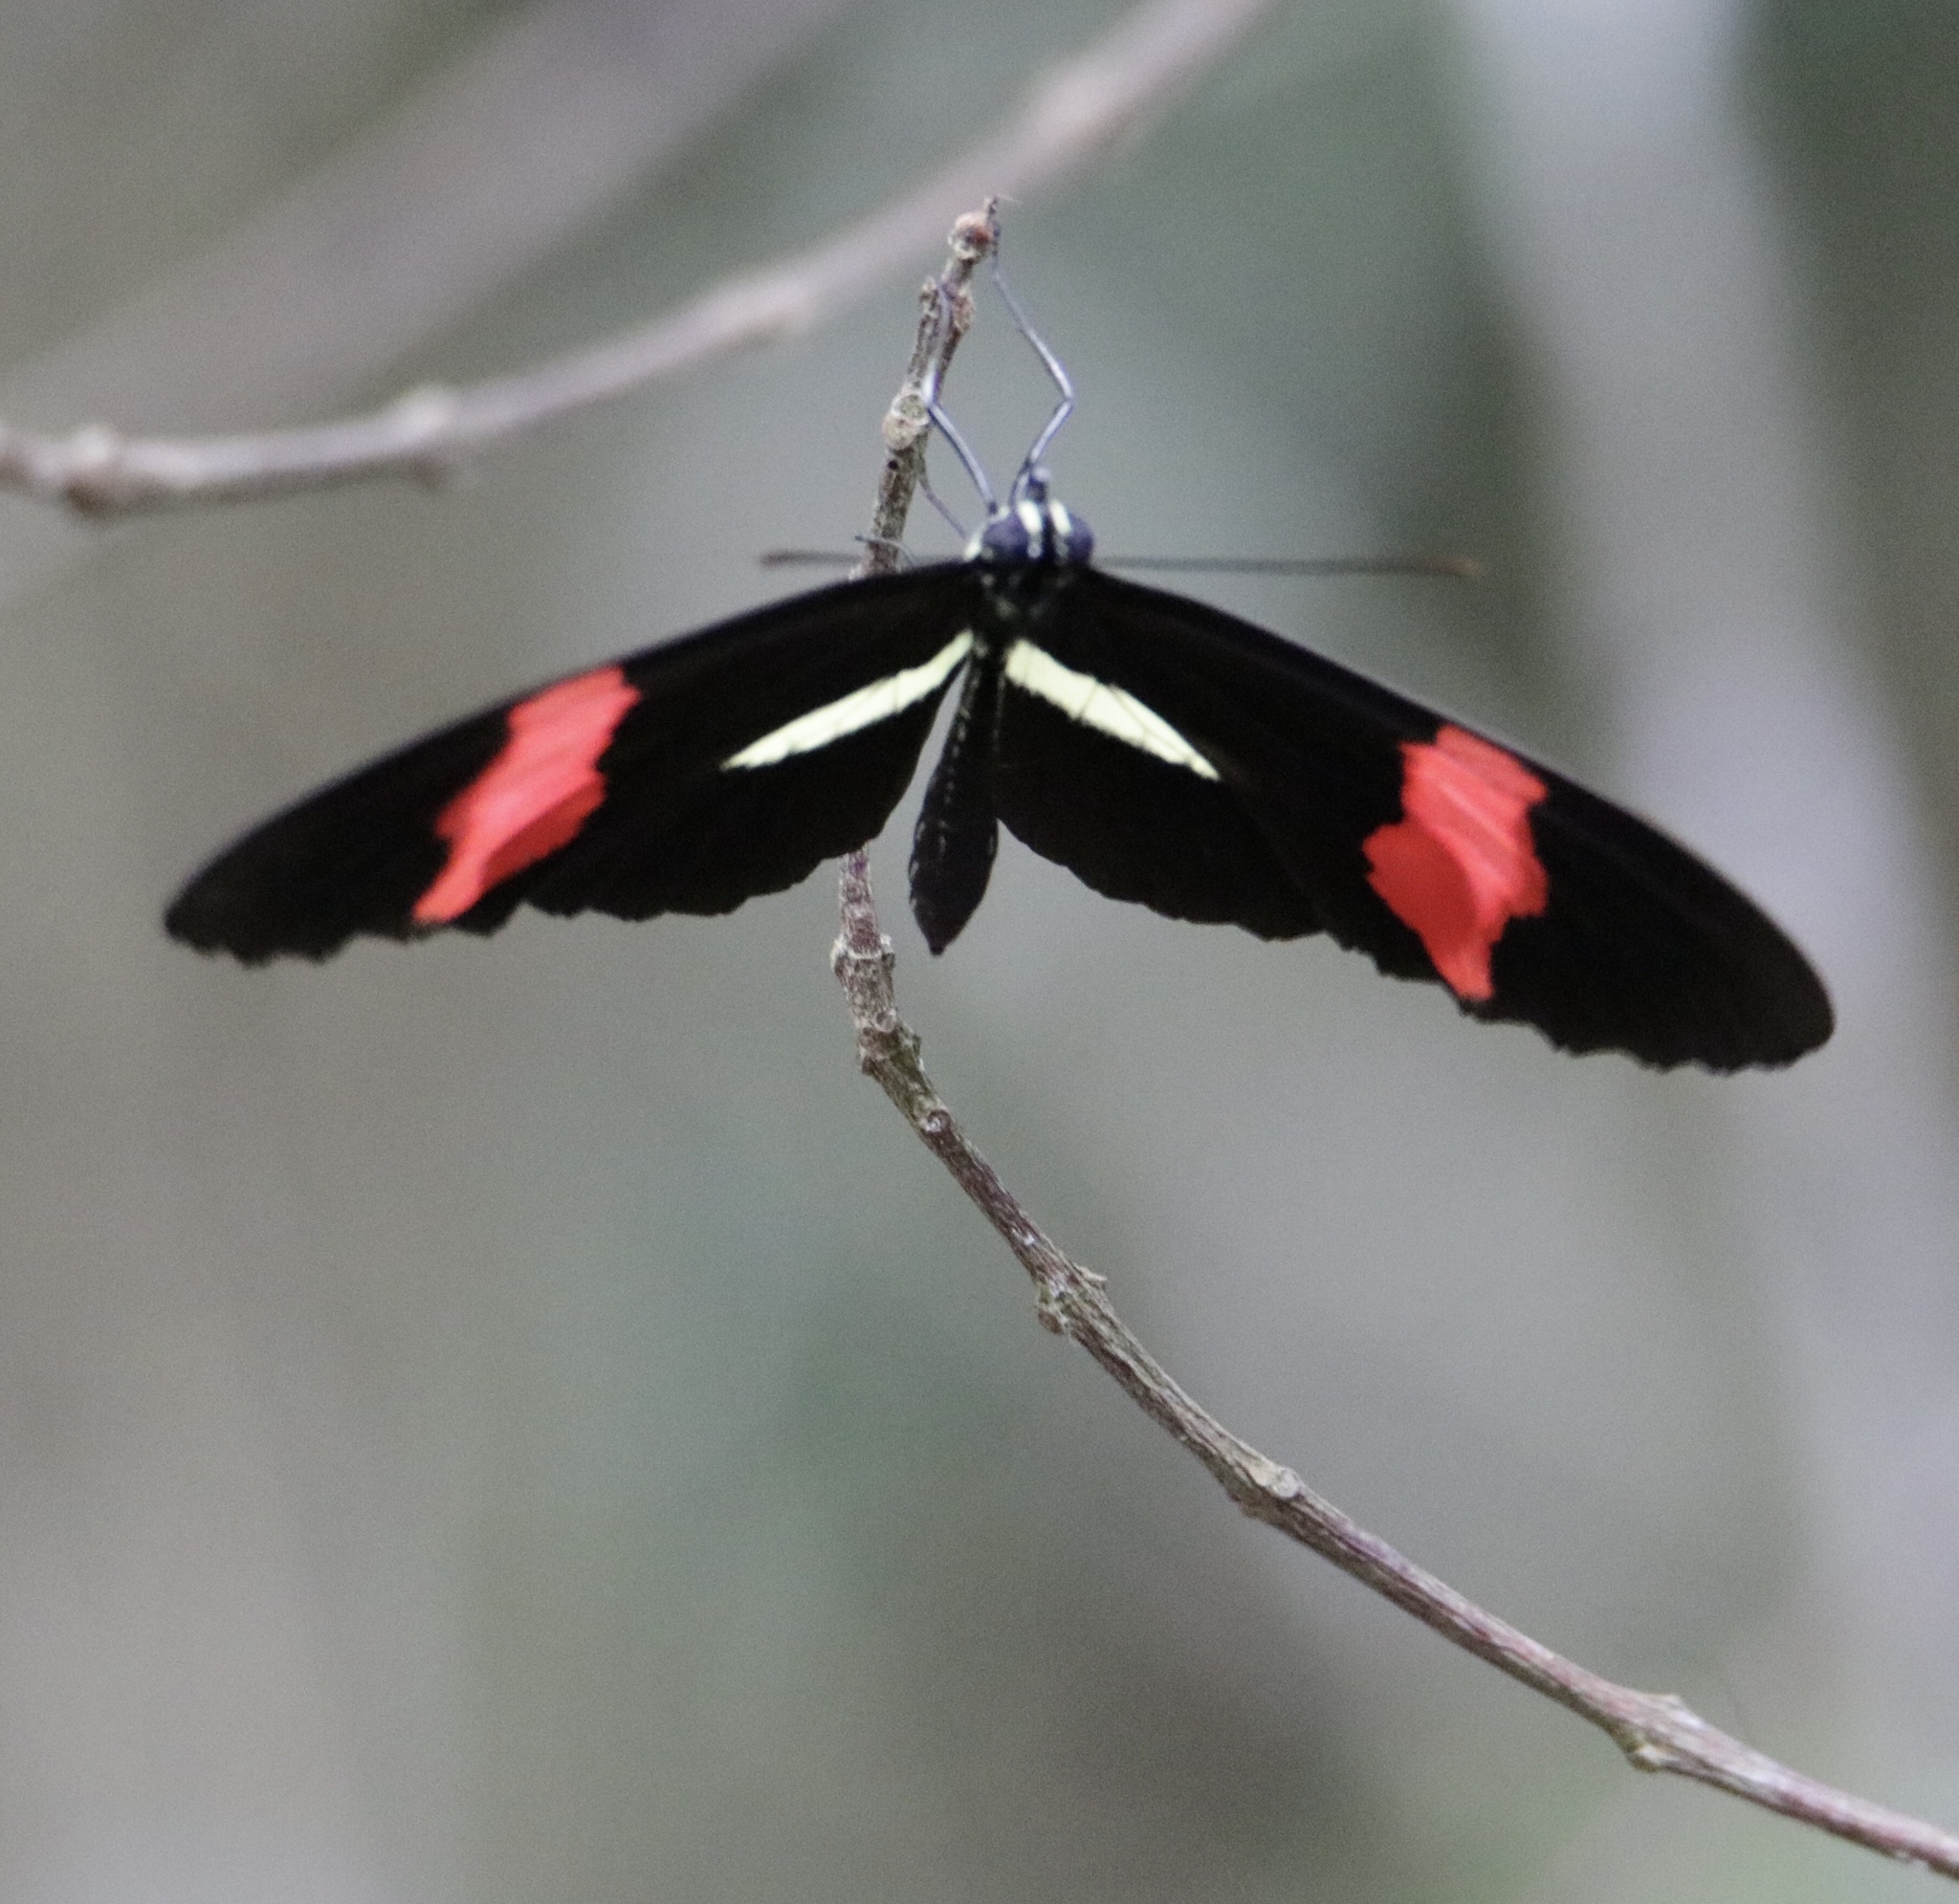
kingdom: Animalia
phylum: Arthropoda
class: Insecta
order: Lepidoptera
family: Nymphalidae
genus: Tirumala
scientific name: Tirumala petiverana
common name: Blue monarch
